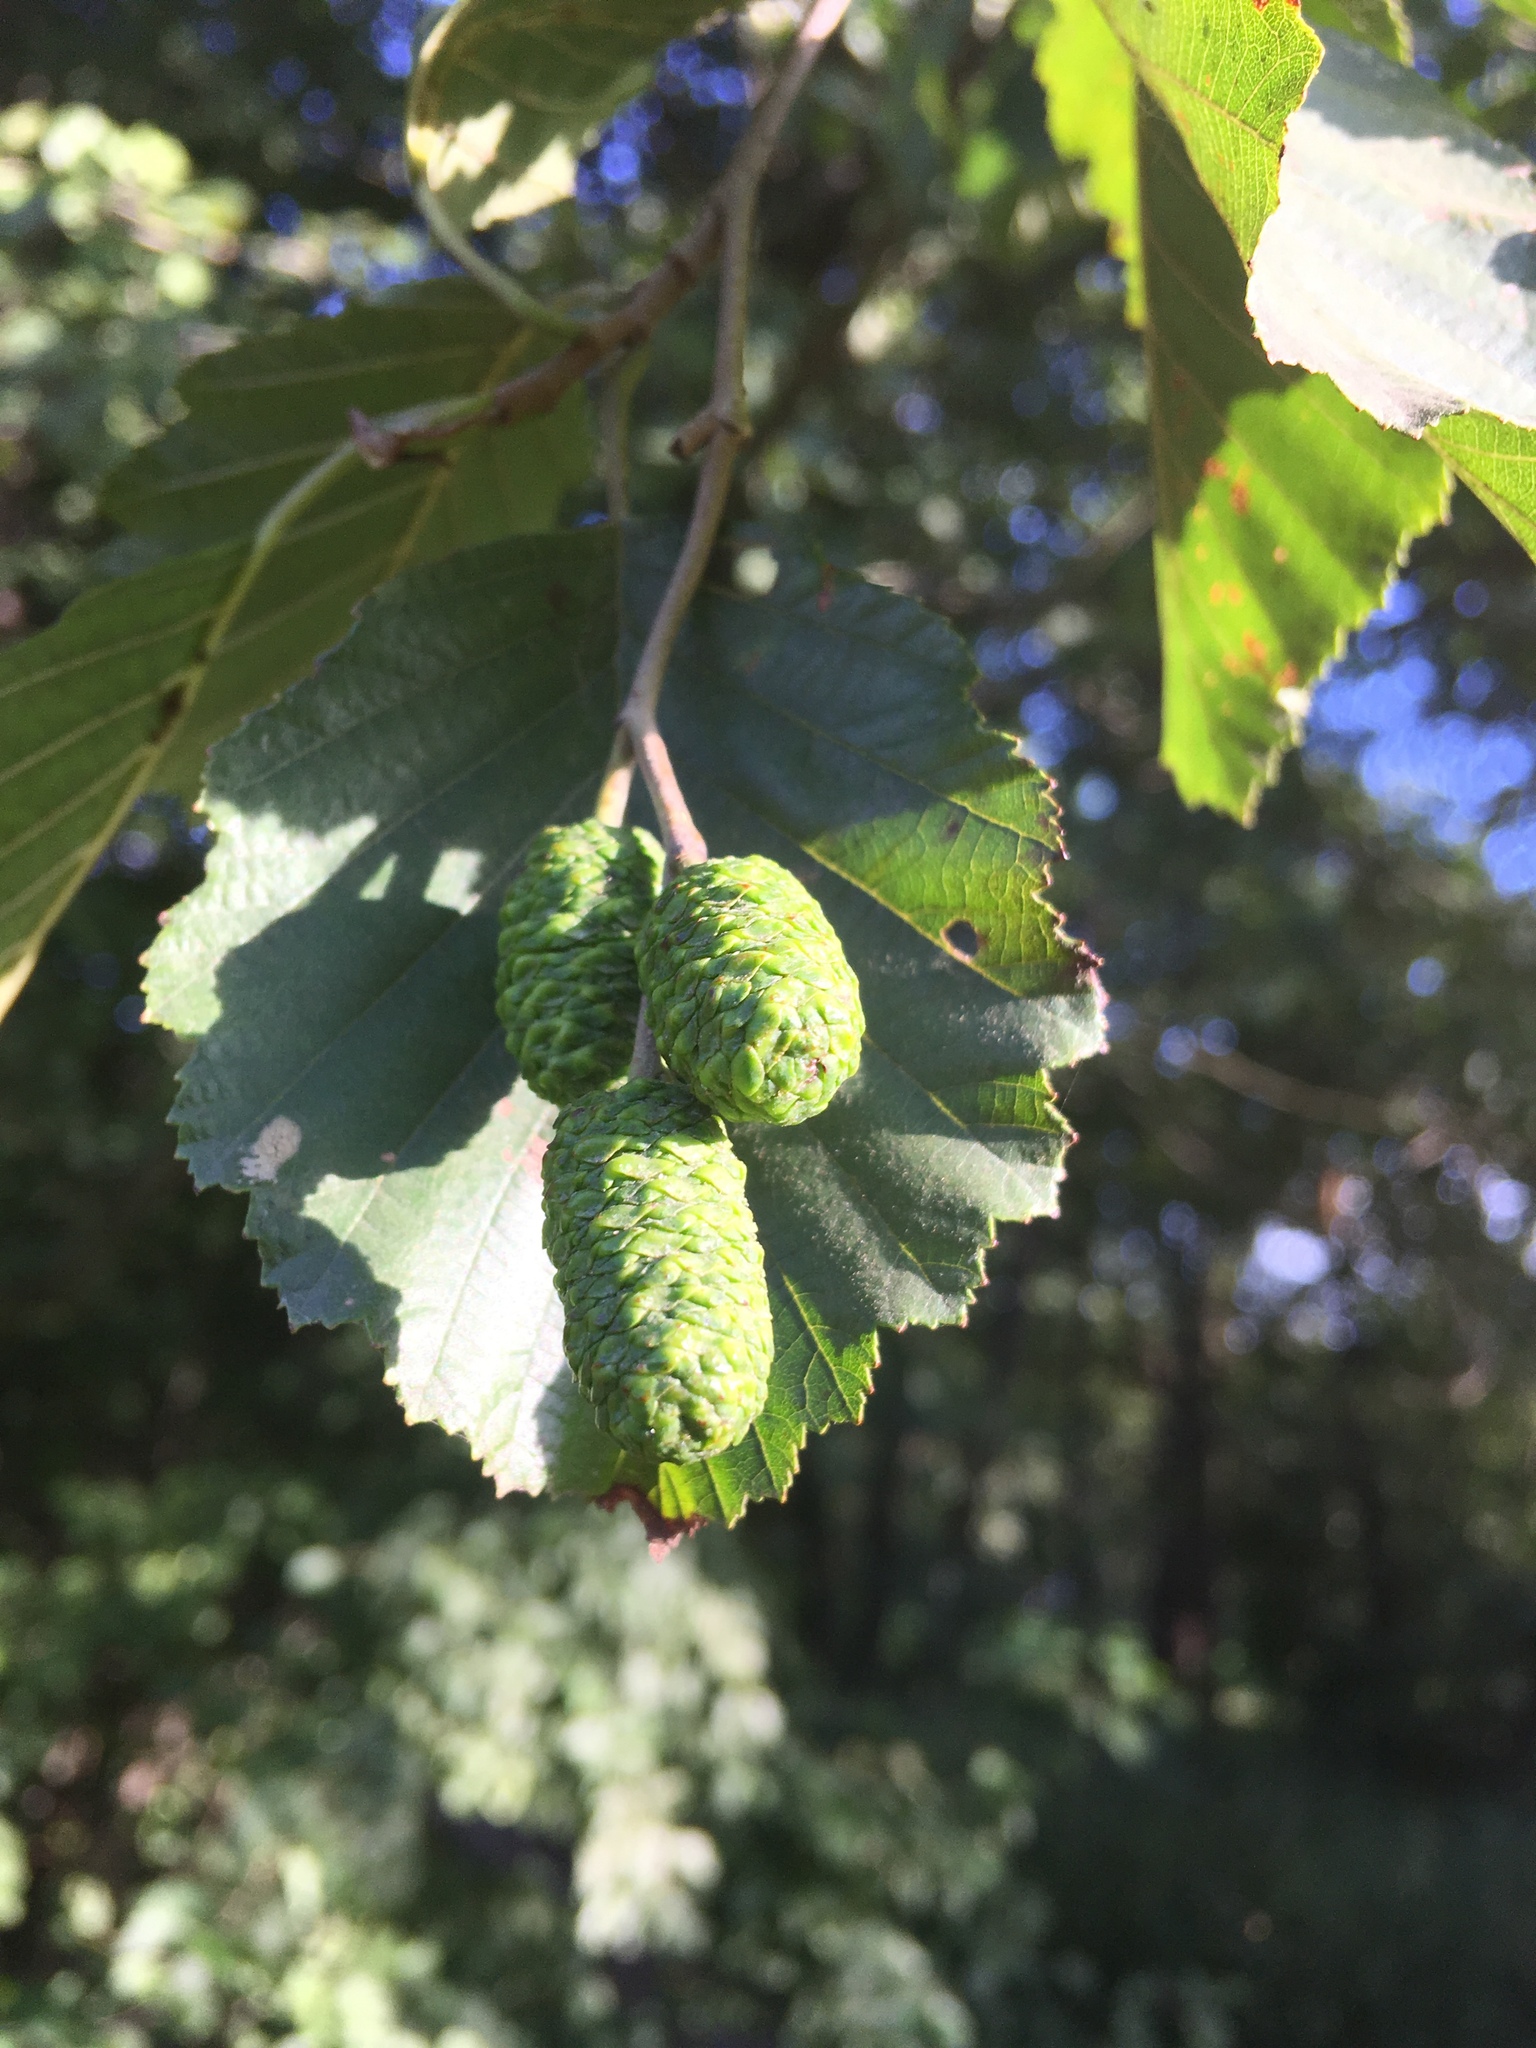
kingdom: Plantae
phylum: Tracheophyta
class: Magnoliopsida
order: Fagales
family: Betulaceae
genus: Alnus
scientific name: Alnus glutinosa
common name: Black alder
